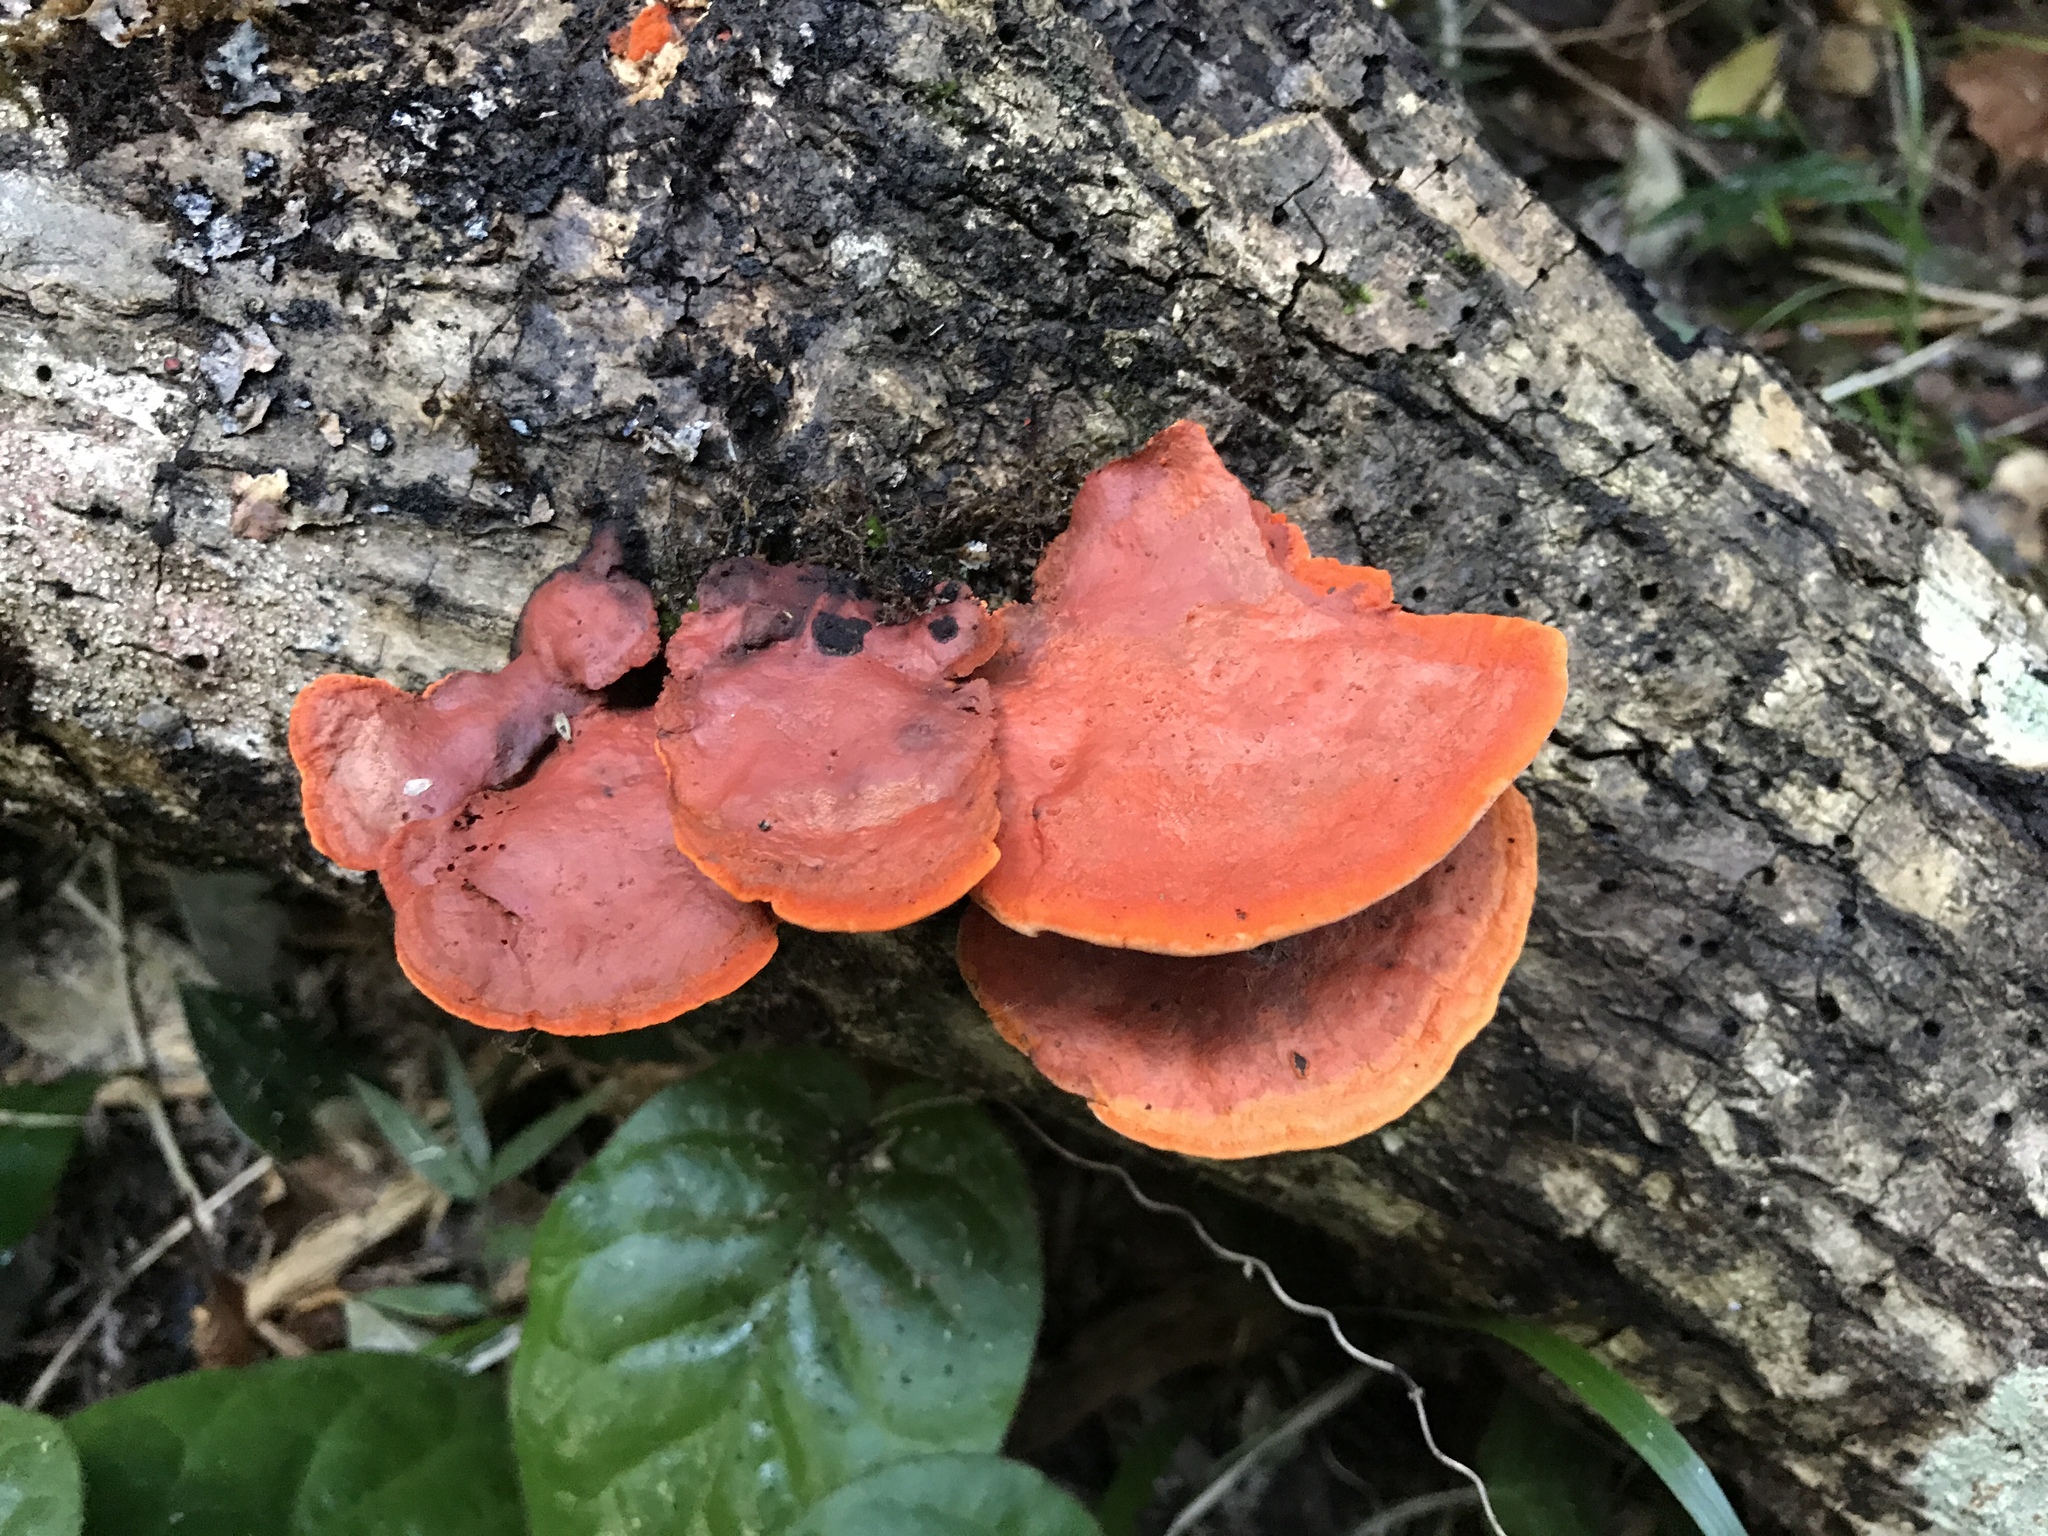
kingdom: Fungi
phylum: Basidiomycota
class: Agaricomycetes
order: Polyporales
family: Polyporaceae
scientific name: Polyporaceae
